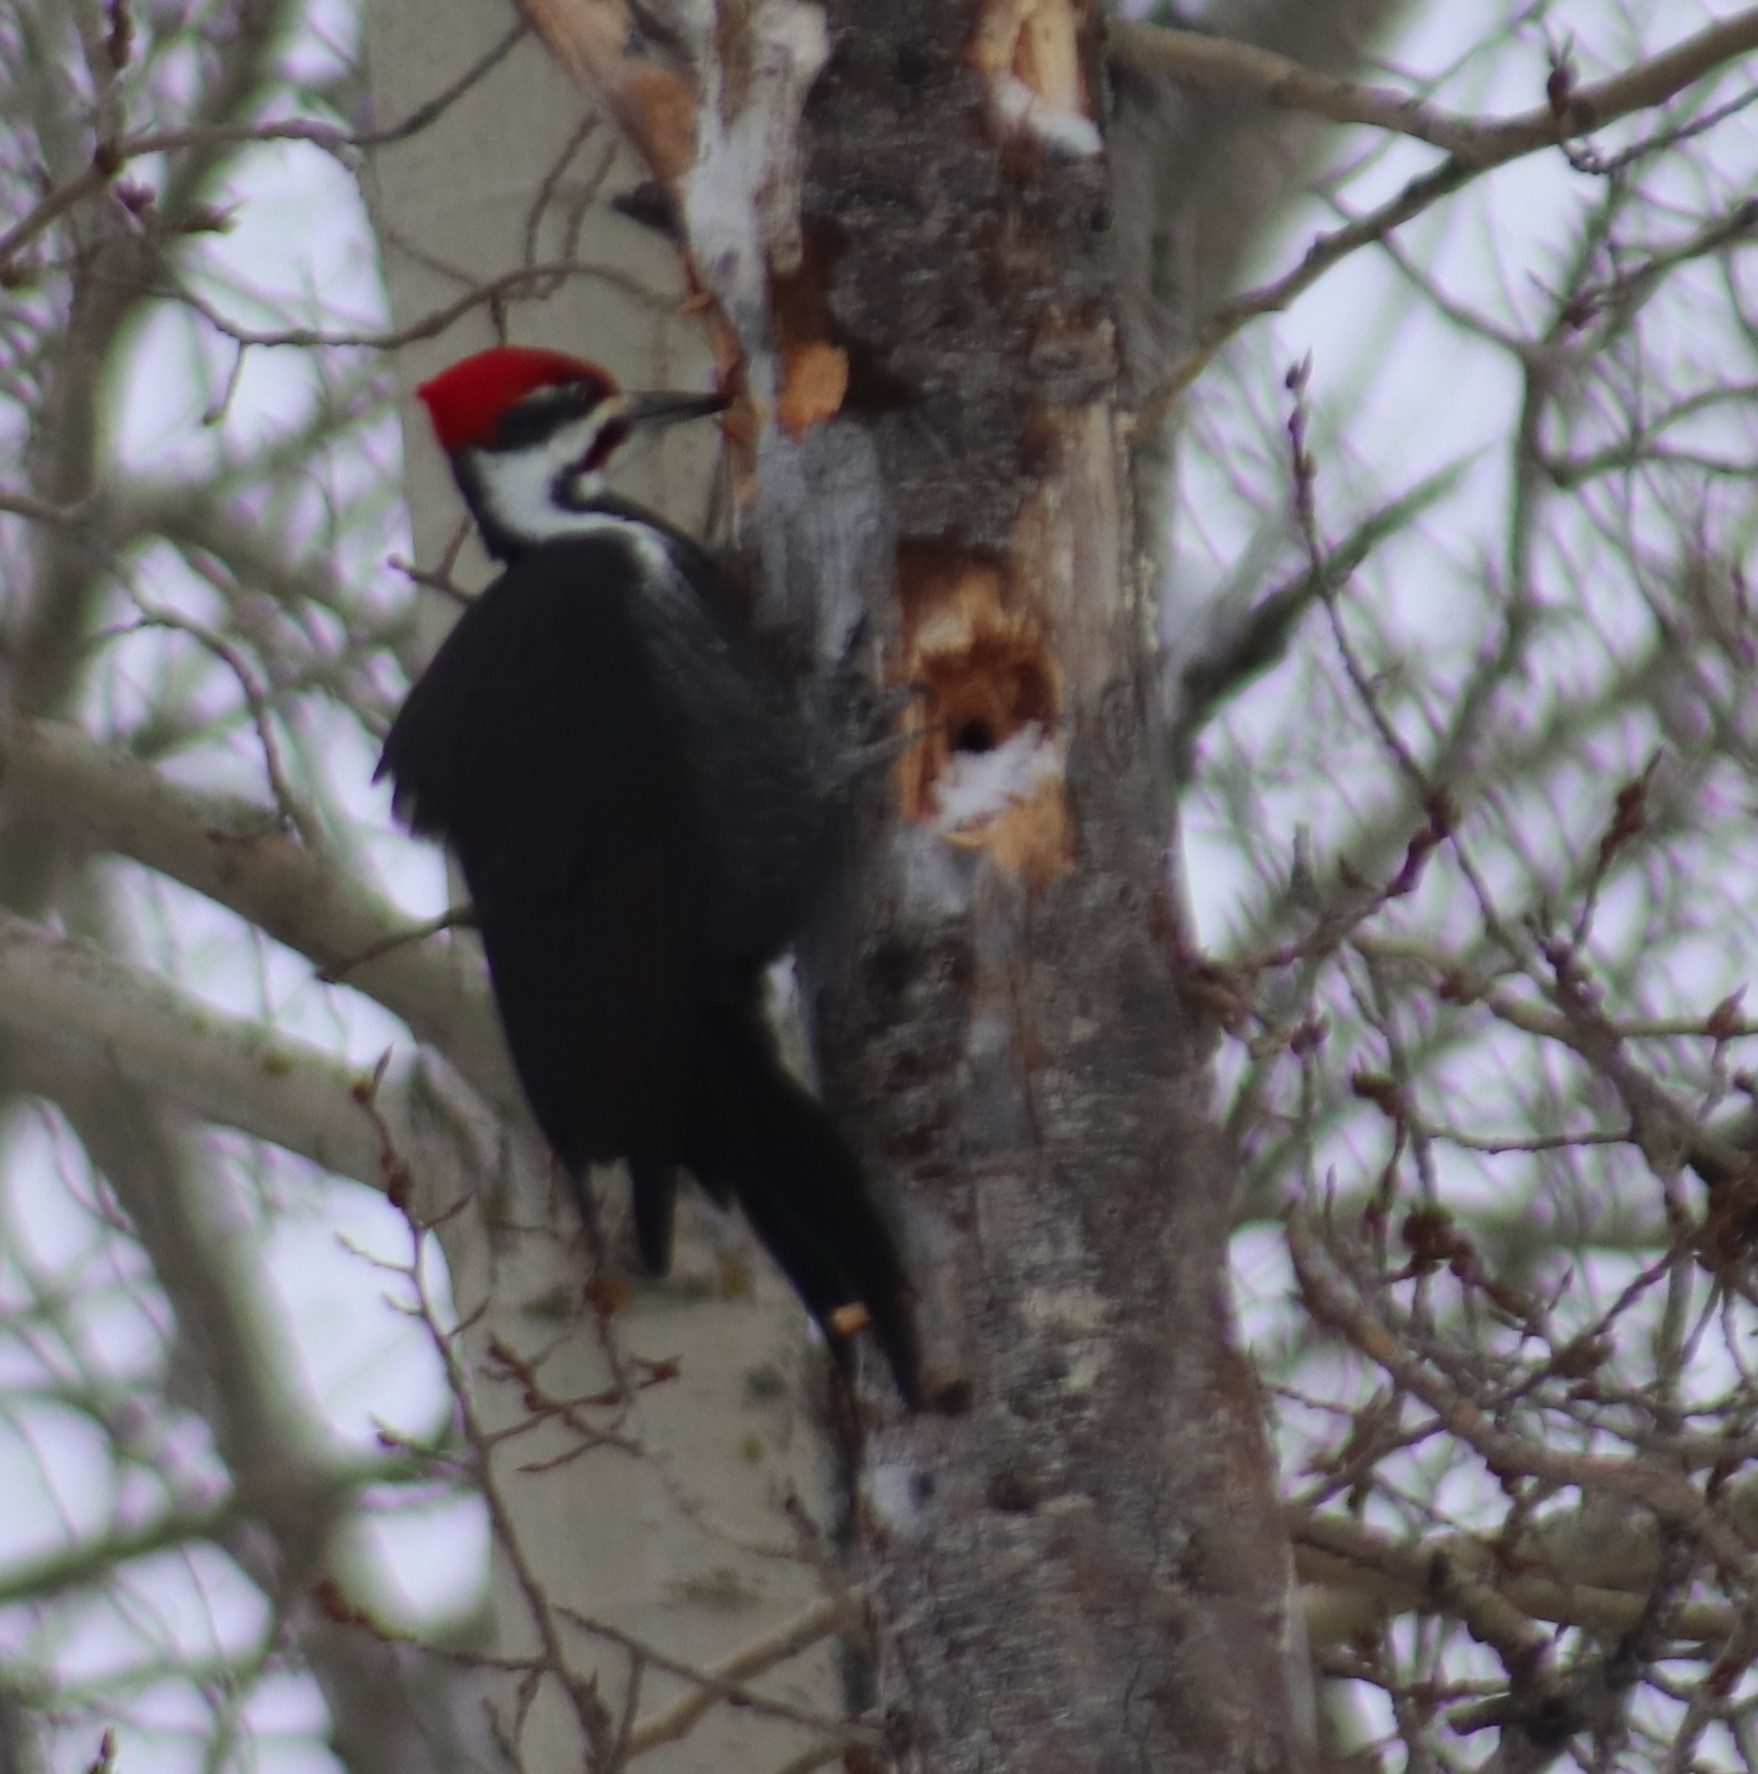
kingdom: Animalia
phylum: Chordata
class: Aves
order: Piciformes
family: Picidae
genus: Dryocopus
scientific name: Dryocopus pileatus
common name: Pileated woodpecker
